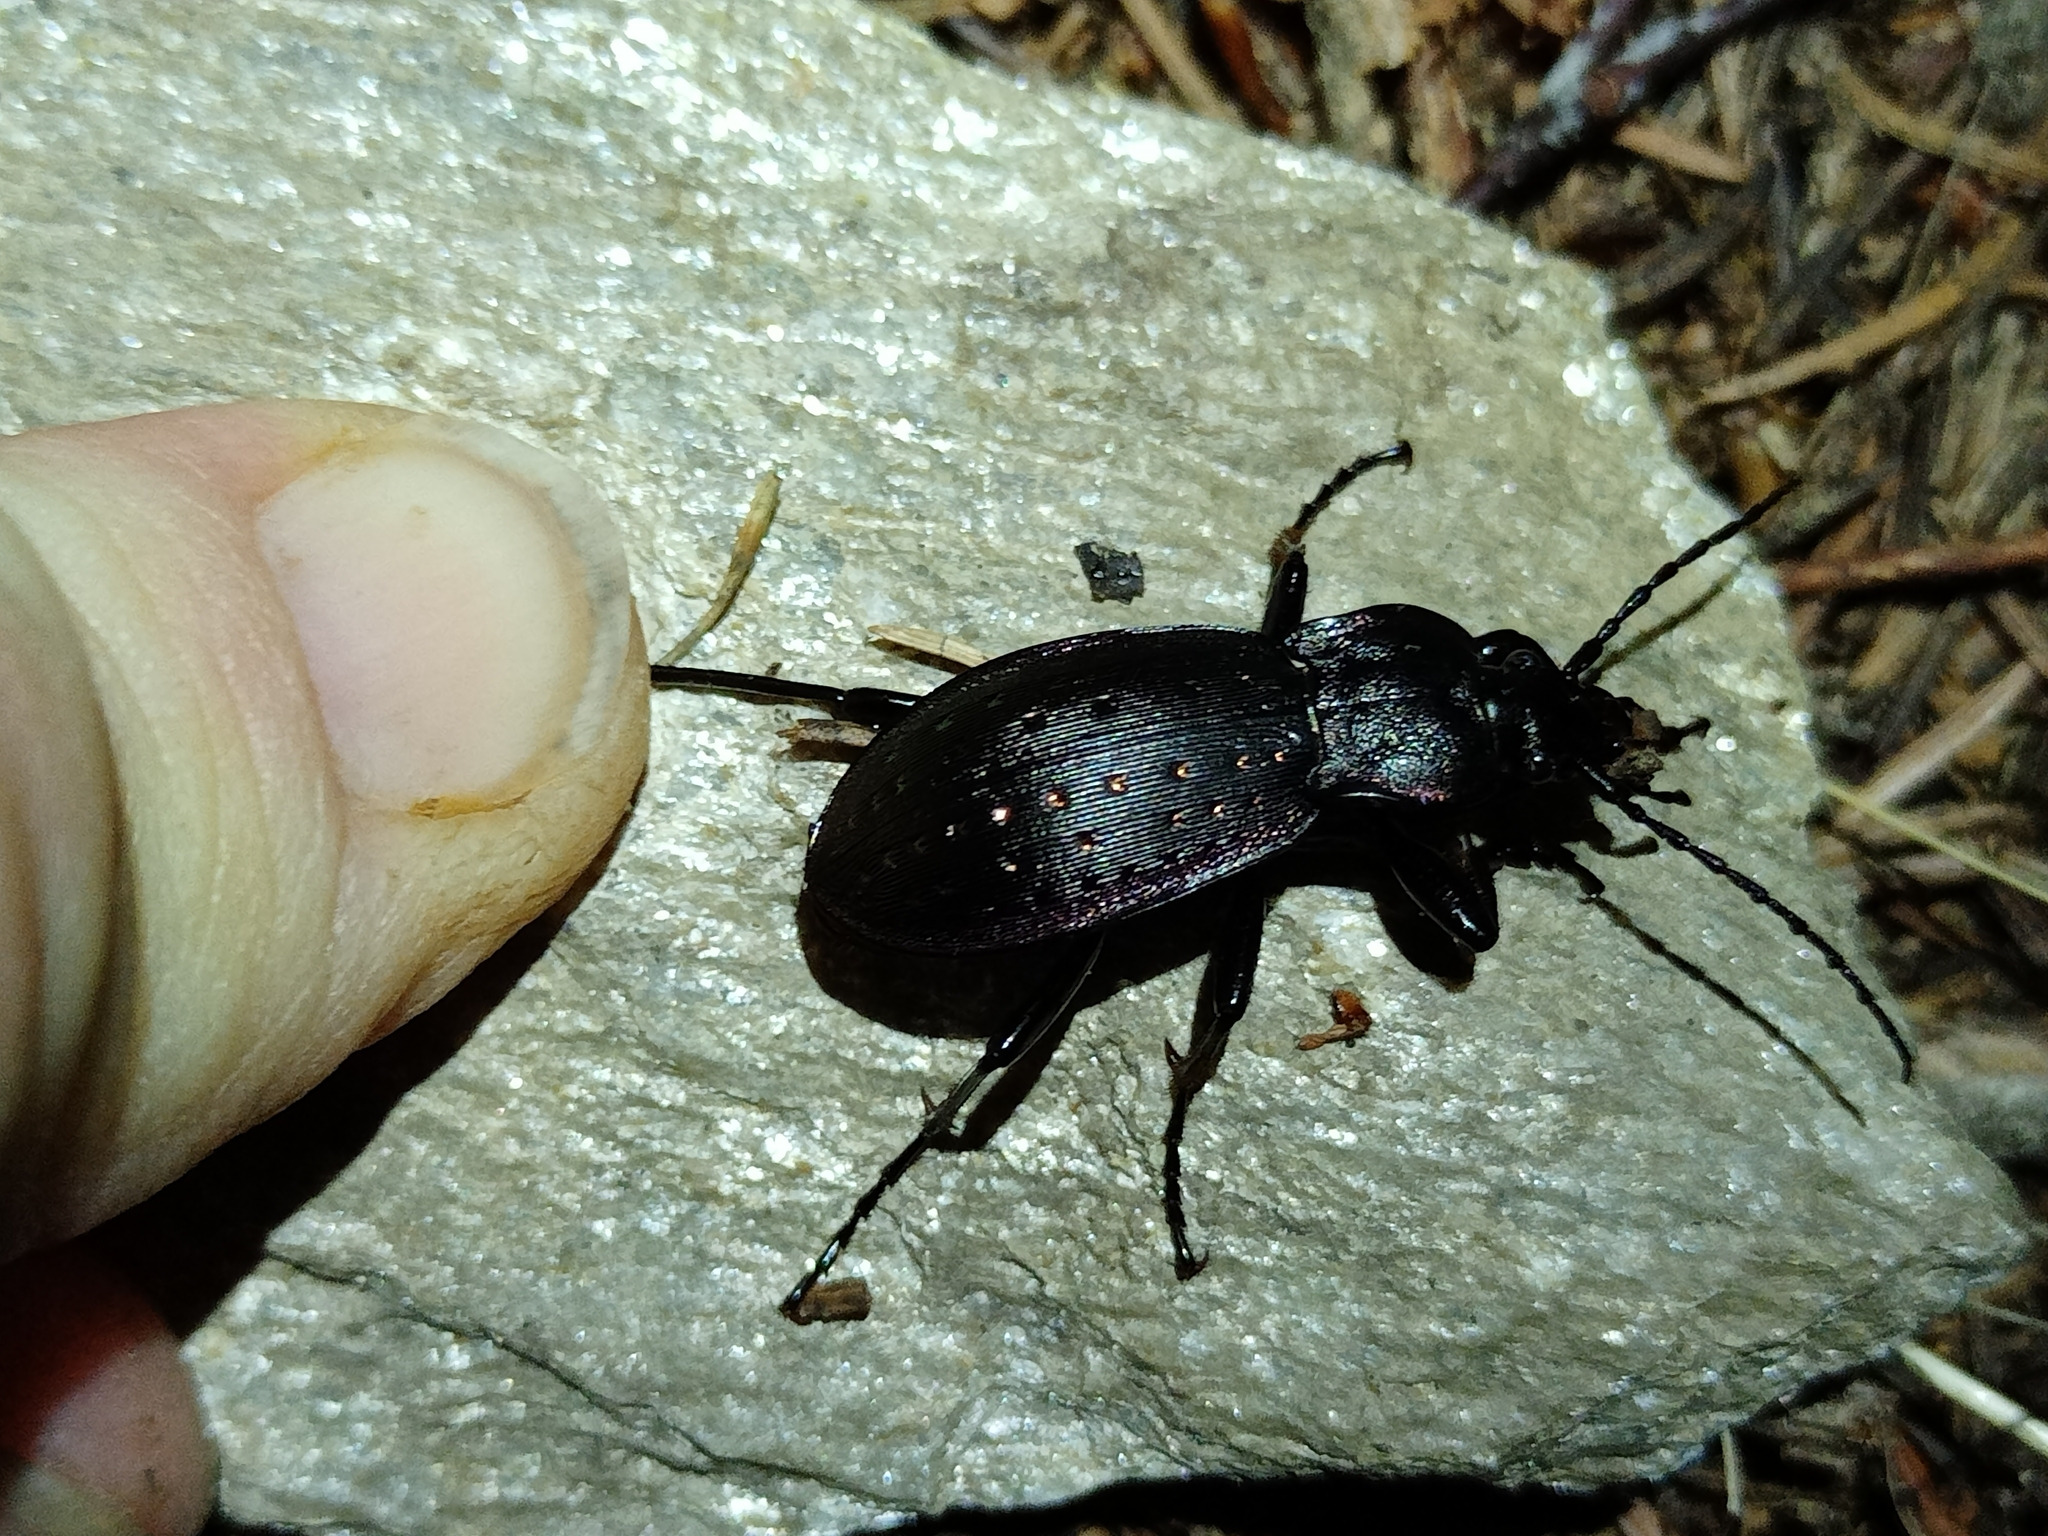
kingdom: Animalia
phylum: Arthropoda
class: Insecta
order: Coleoptera
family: Carabidae
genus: Carabus
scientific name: Carabus hortensis
